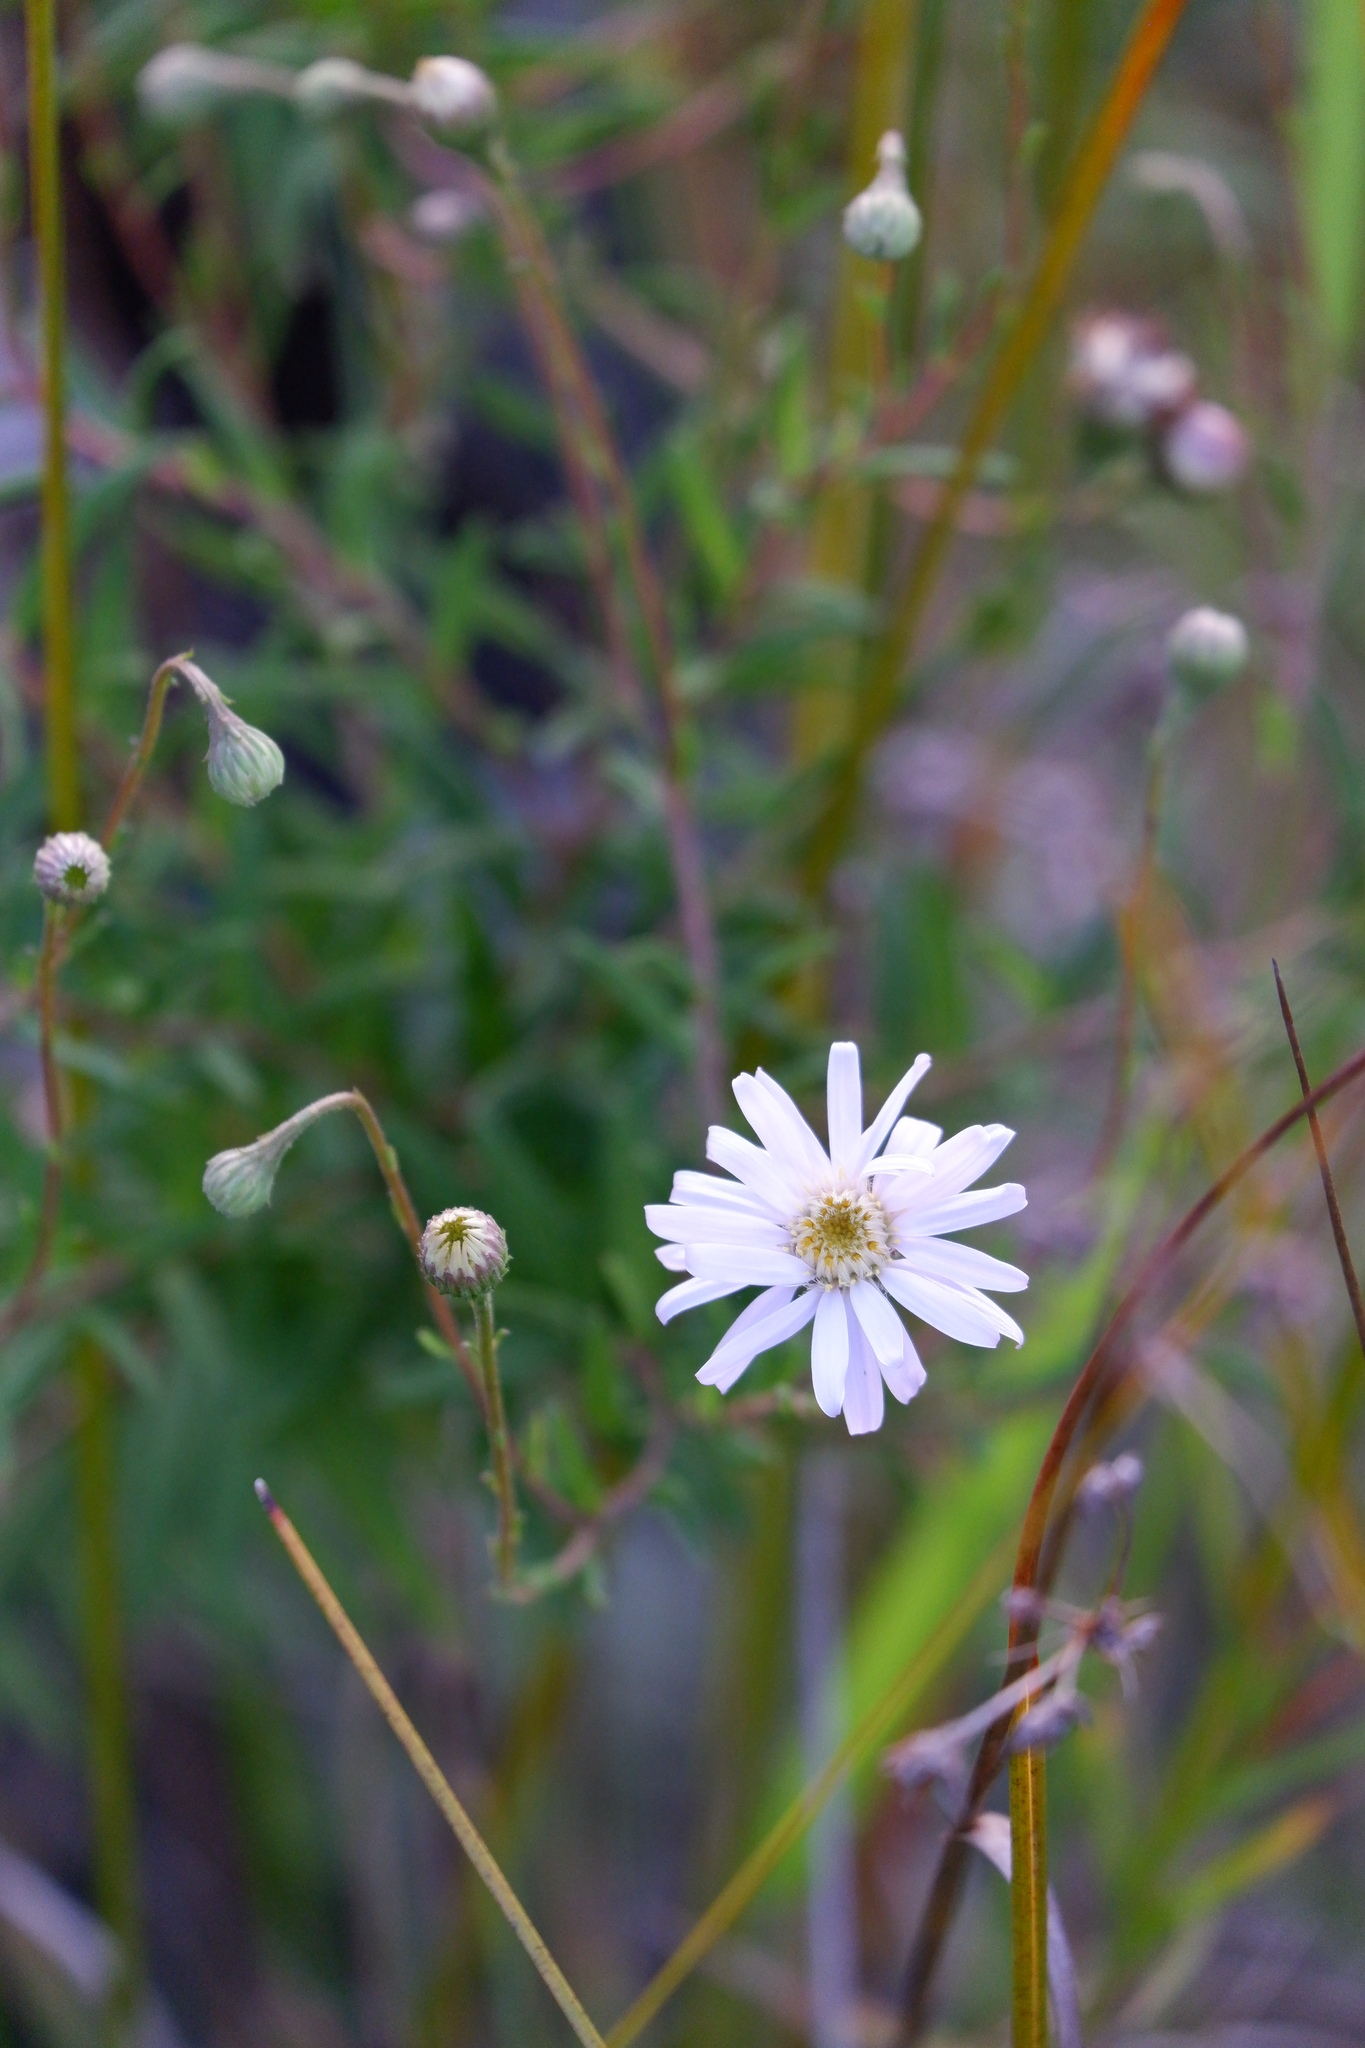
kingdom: Plantae
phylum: Tracheophyta
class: Magnoliopsida
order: Asterales
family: Asteraceae
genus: Oclemena
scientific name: Oclemena nemoralis
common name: Bog aster
